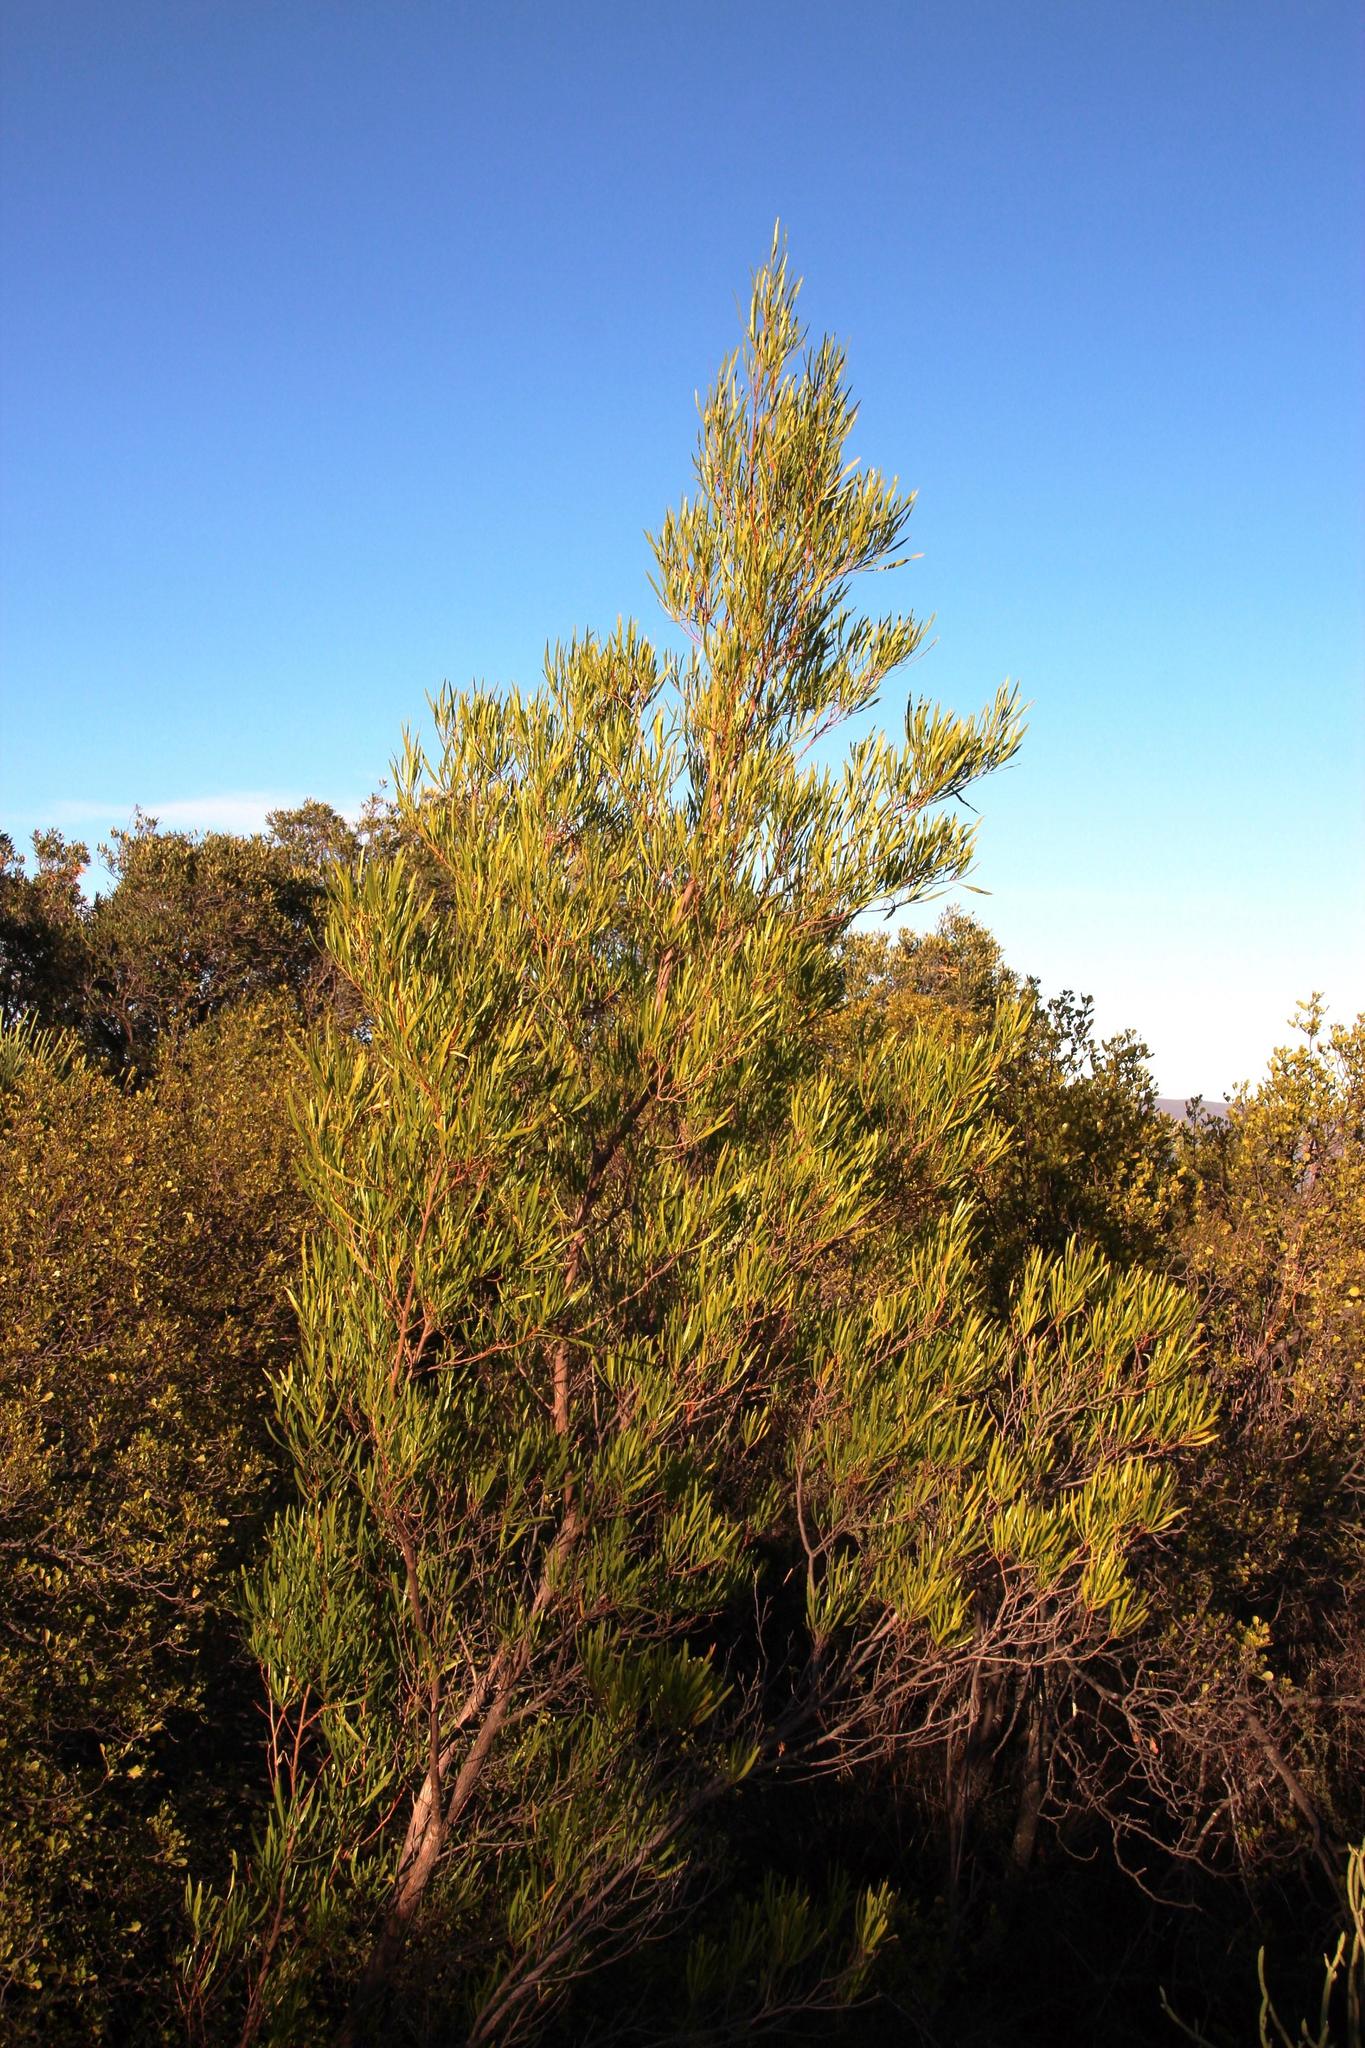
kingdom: Plantae
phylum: Tracheophyta
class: Magnoliopsida
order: Sapindales
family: Sapindaceae
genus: Dodonaea
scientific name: Dodonaea viscosa
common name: Hopbush
